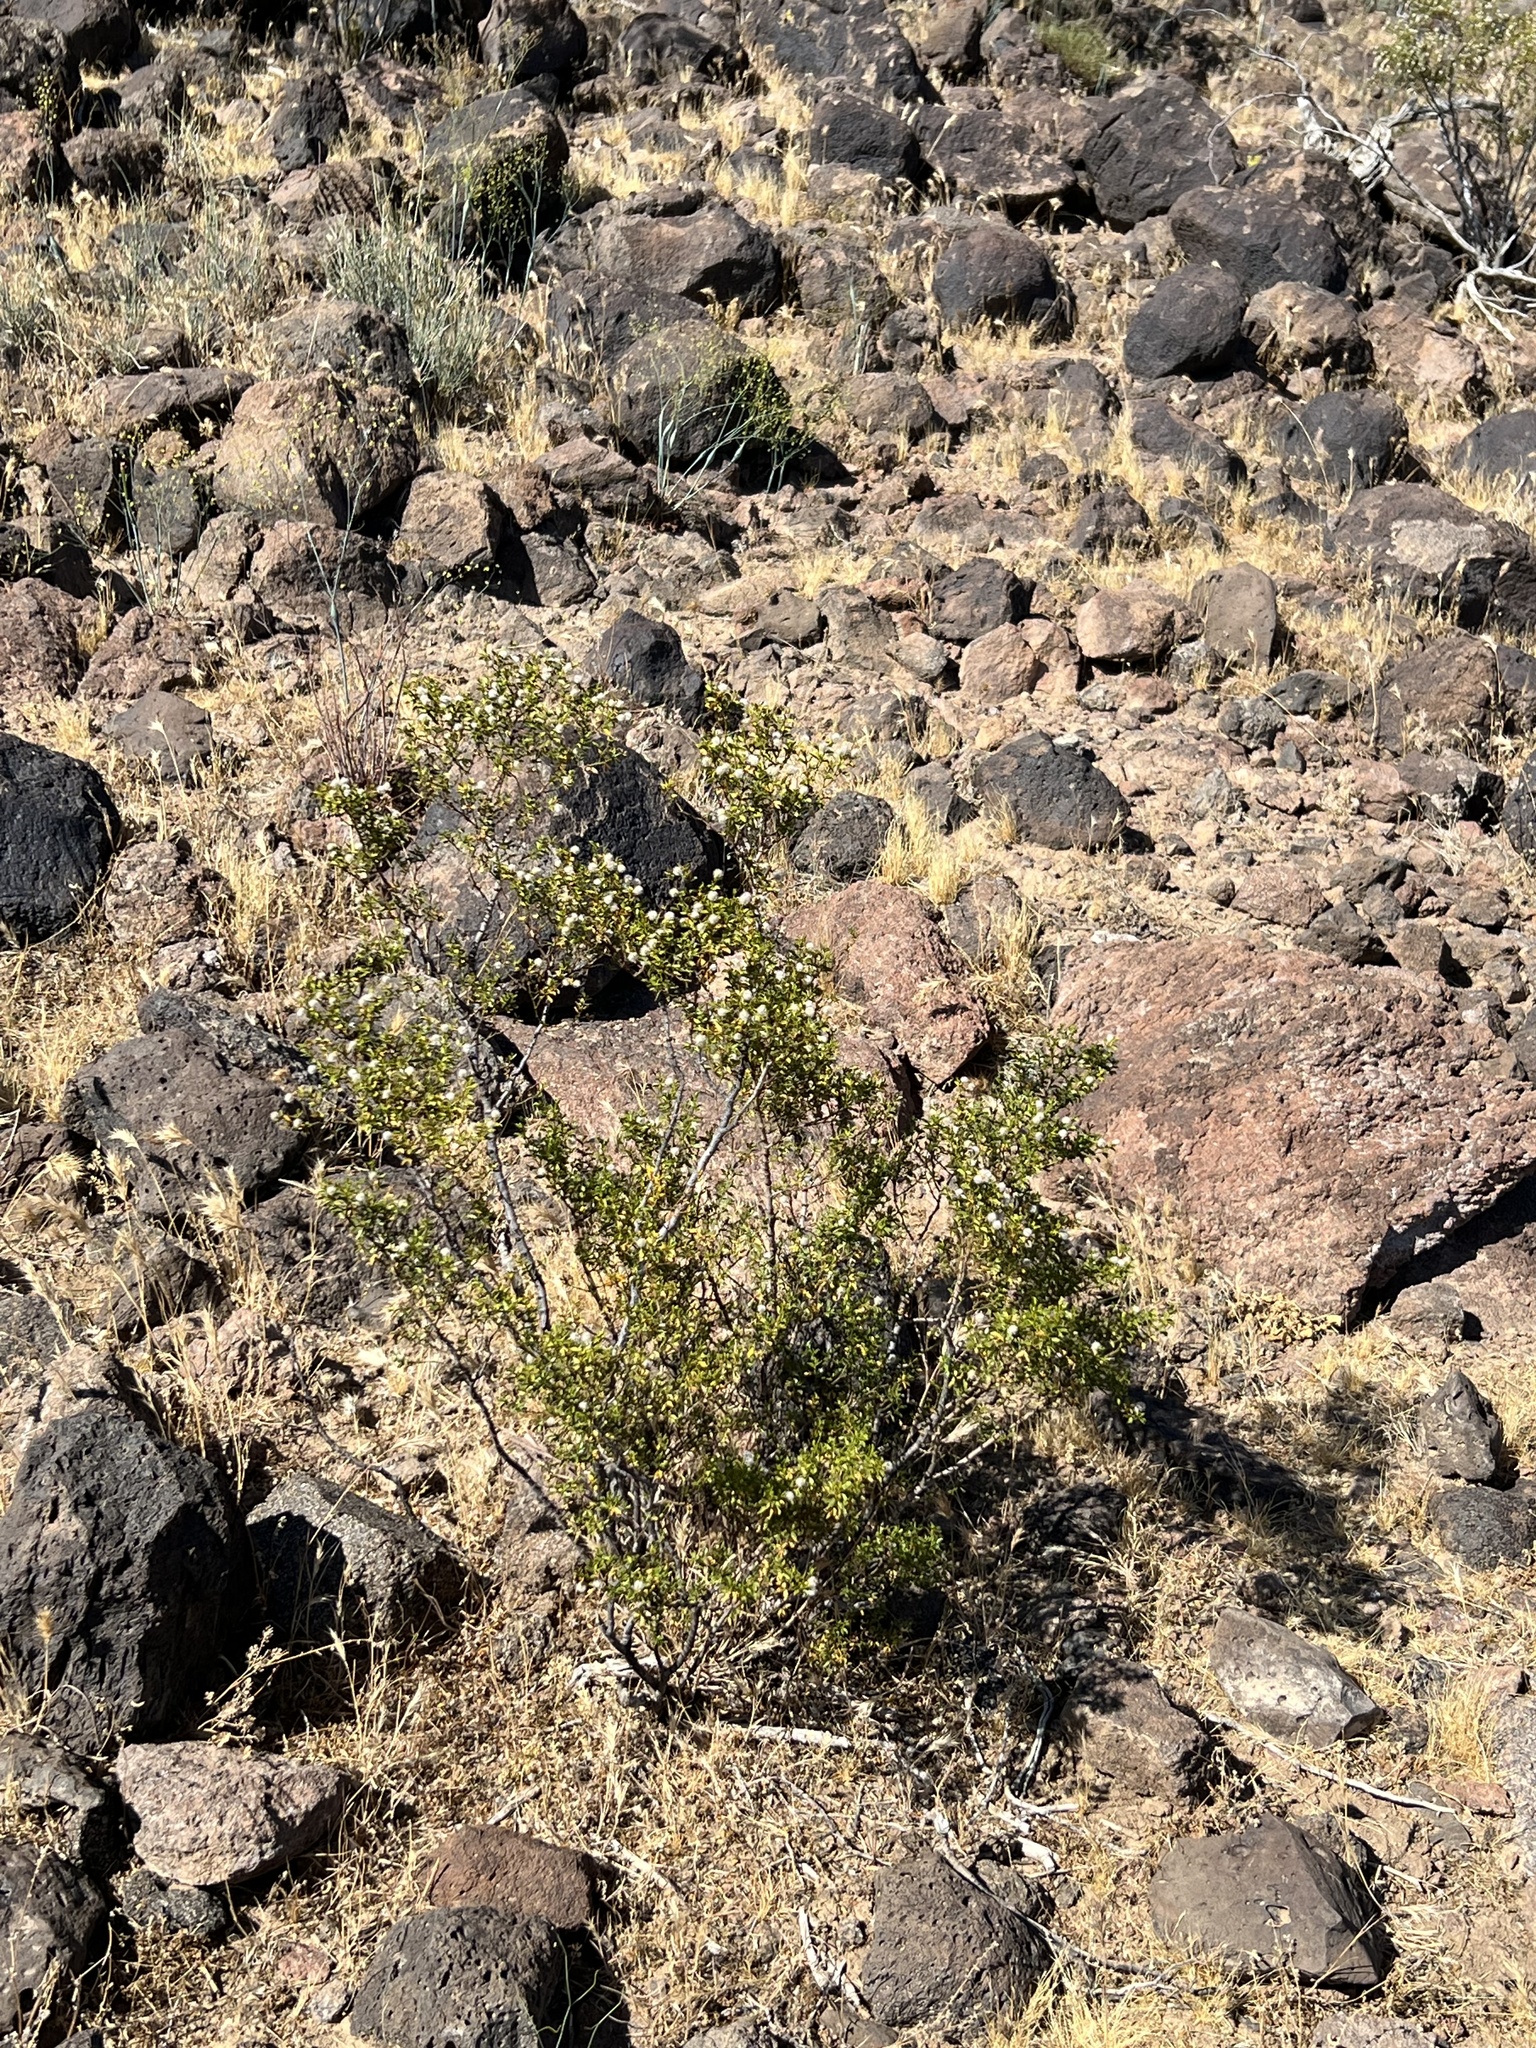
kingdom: Plantae
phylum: Tracheophyta
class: Magnoliopsida
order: Zygophyllales
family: Zygophyllaceae
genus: Larrea
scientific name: Larrea tridentata
